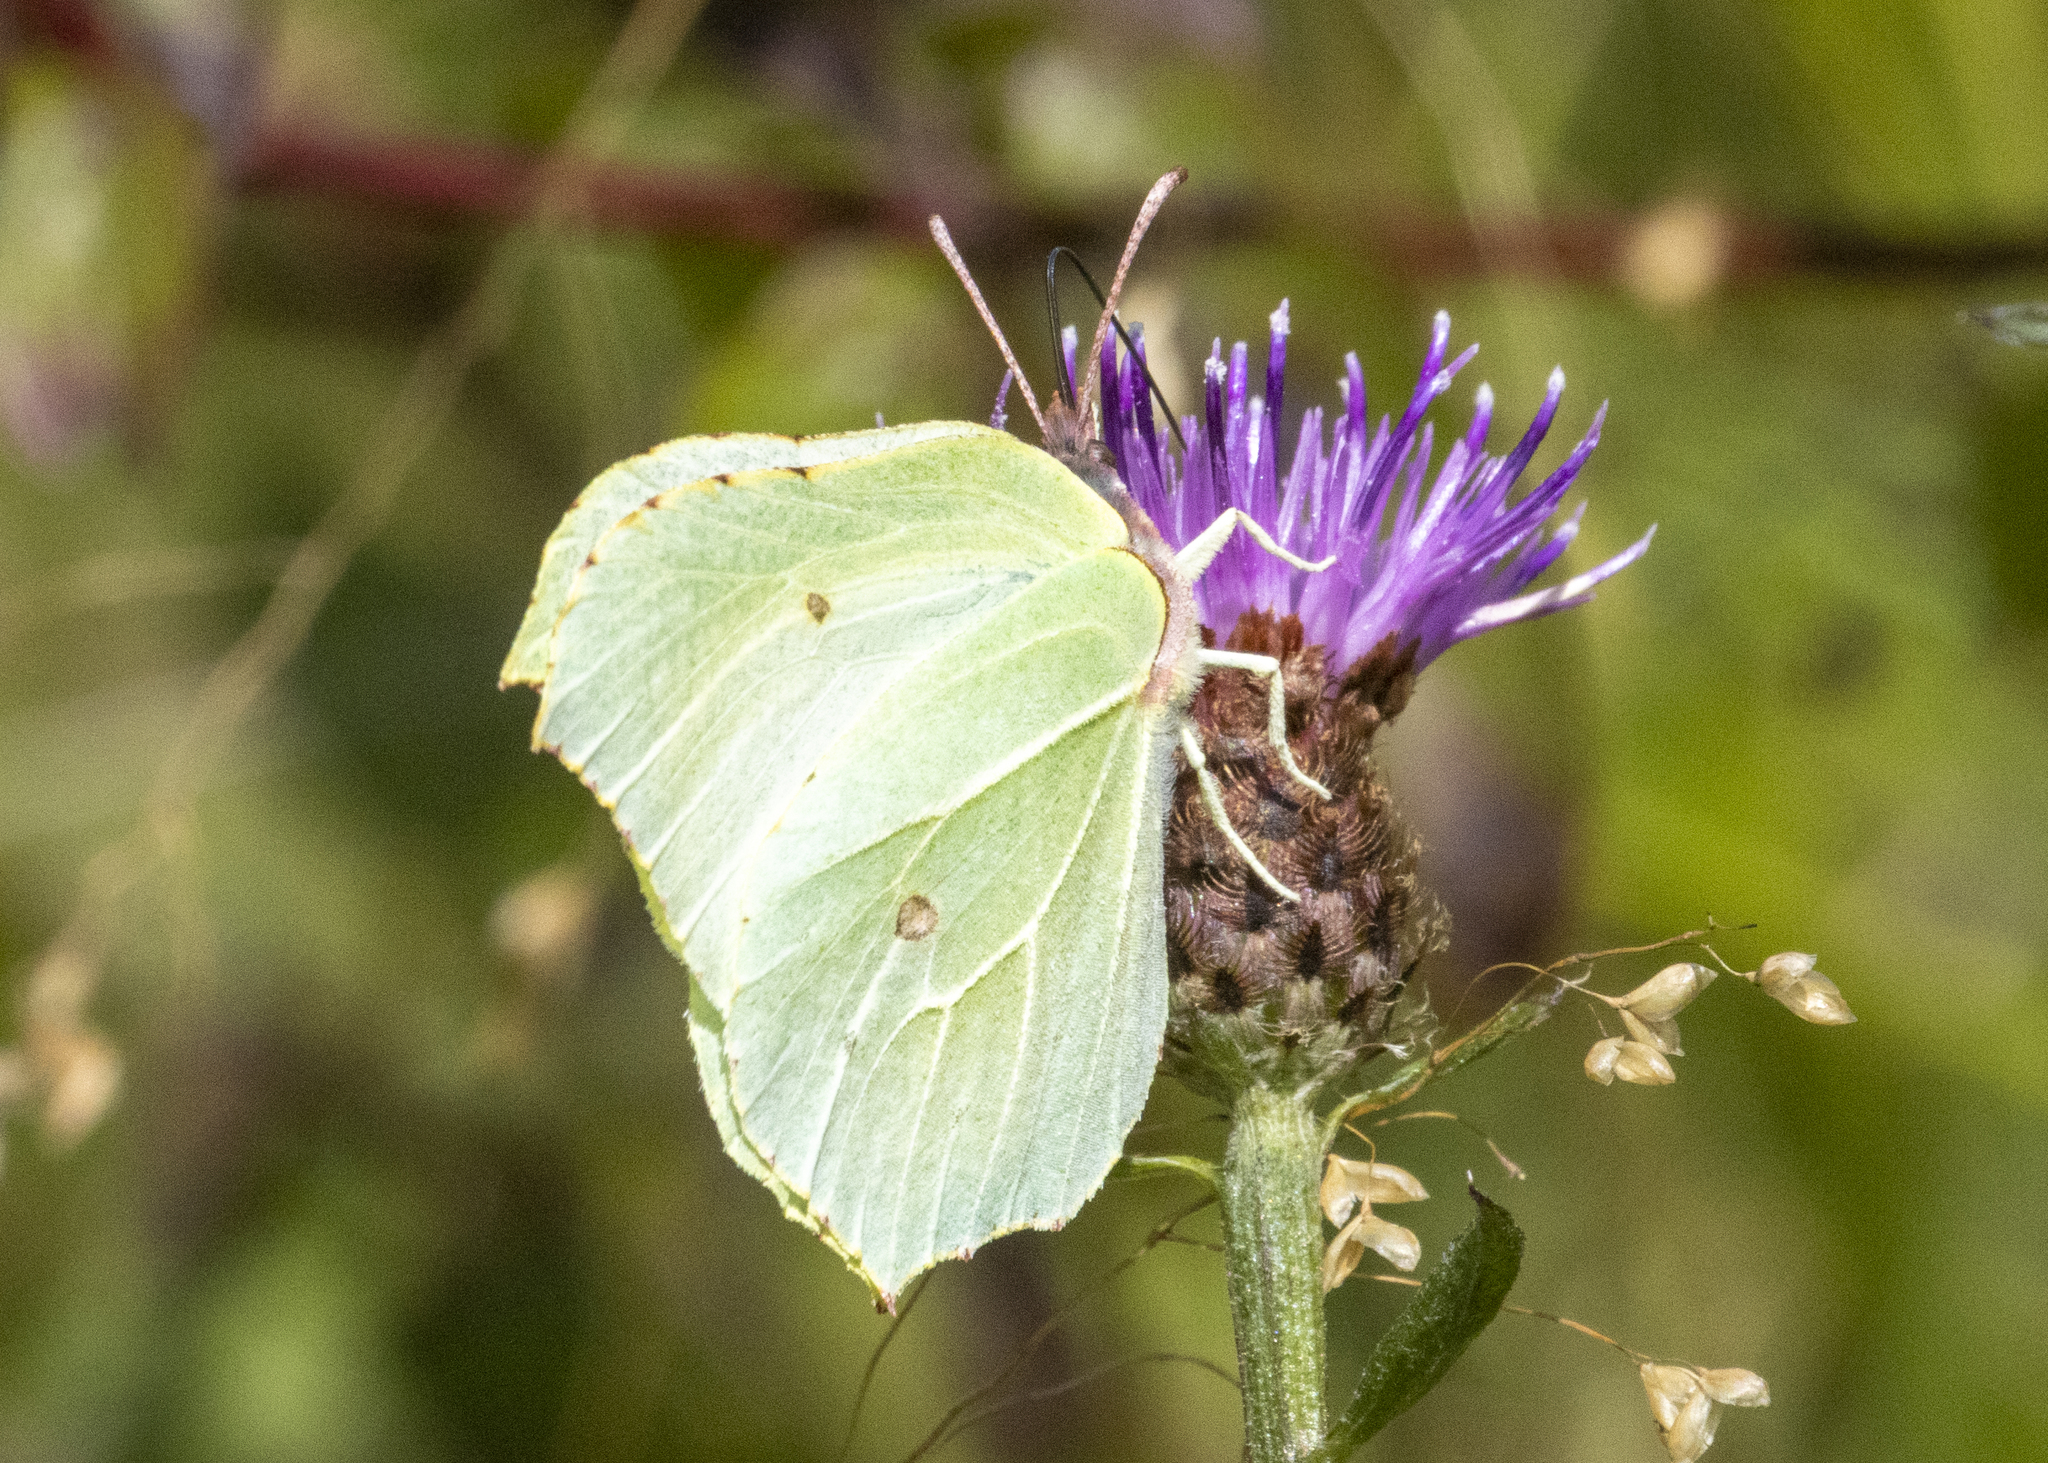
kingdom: Animalia
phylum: Arthropoda
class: Insecta
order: Lepidoptera
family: Pieridae
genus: Gonepteryx
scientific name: Gonepteryx rhamni
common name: Brimstone
